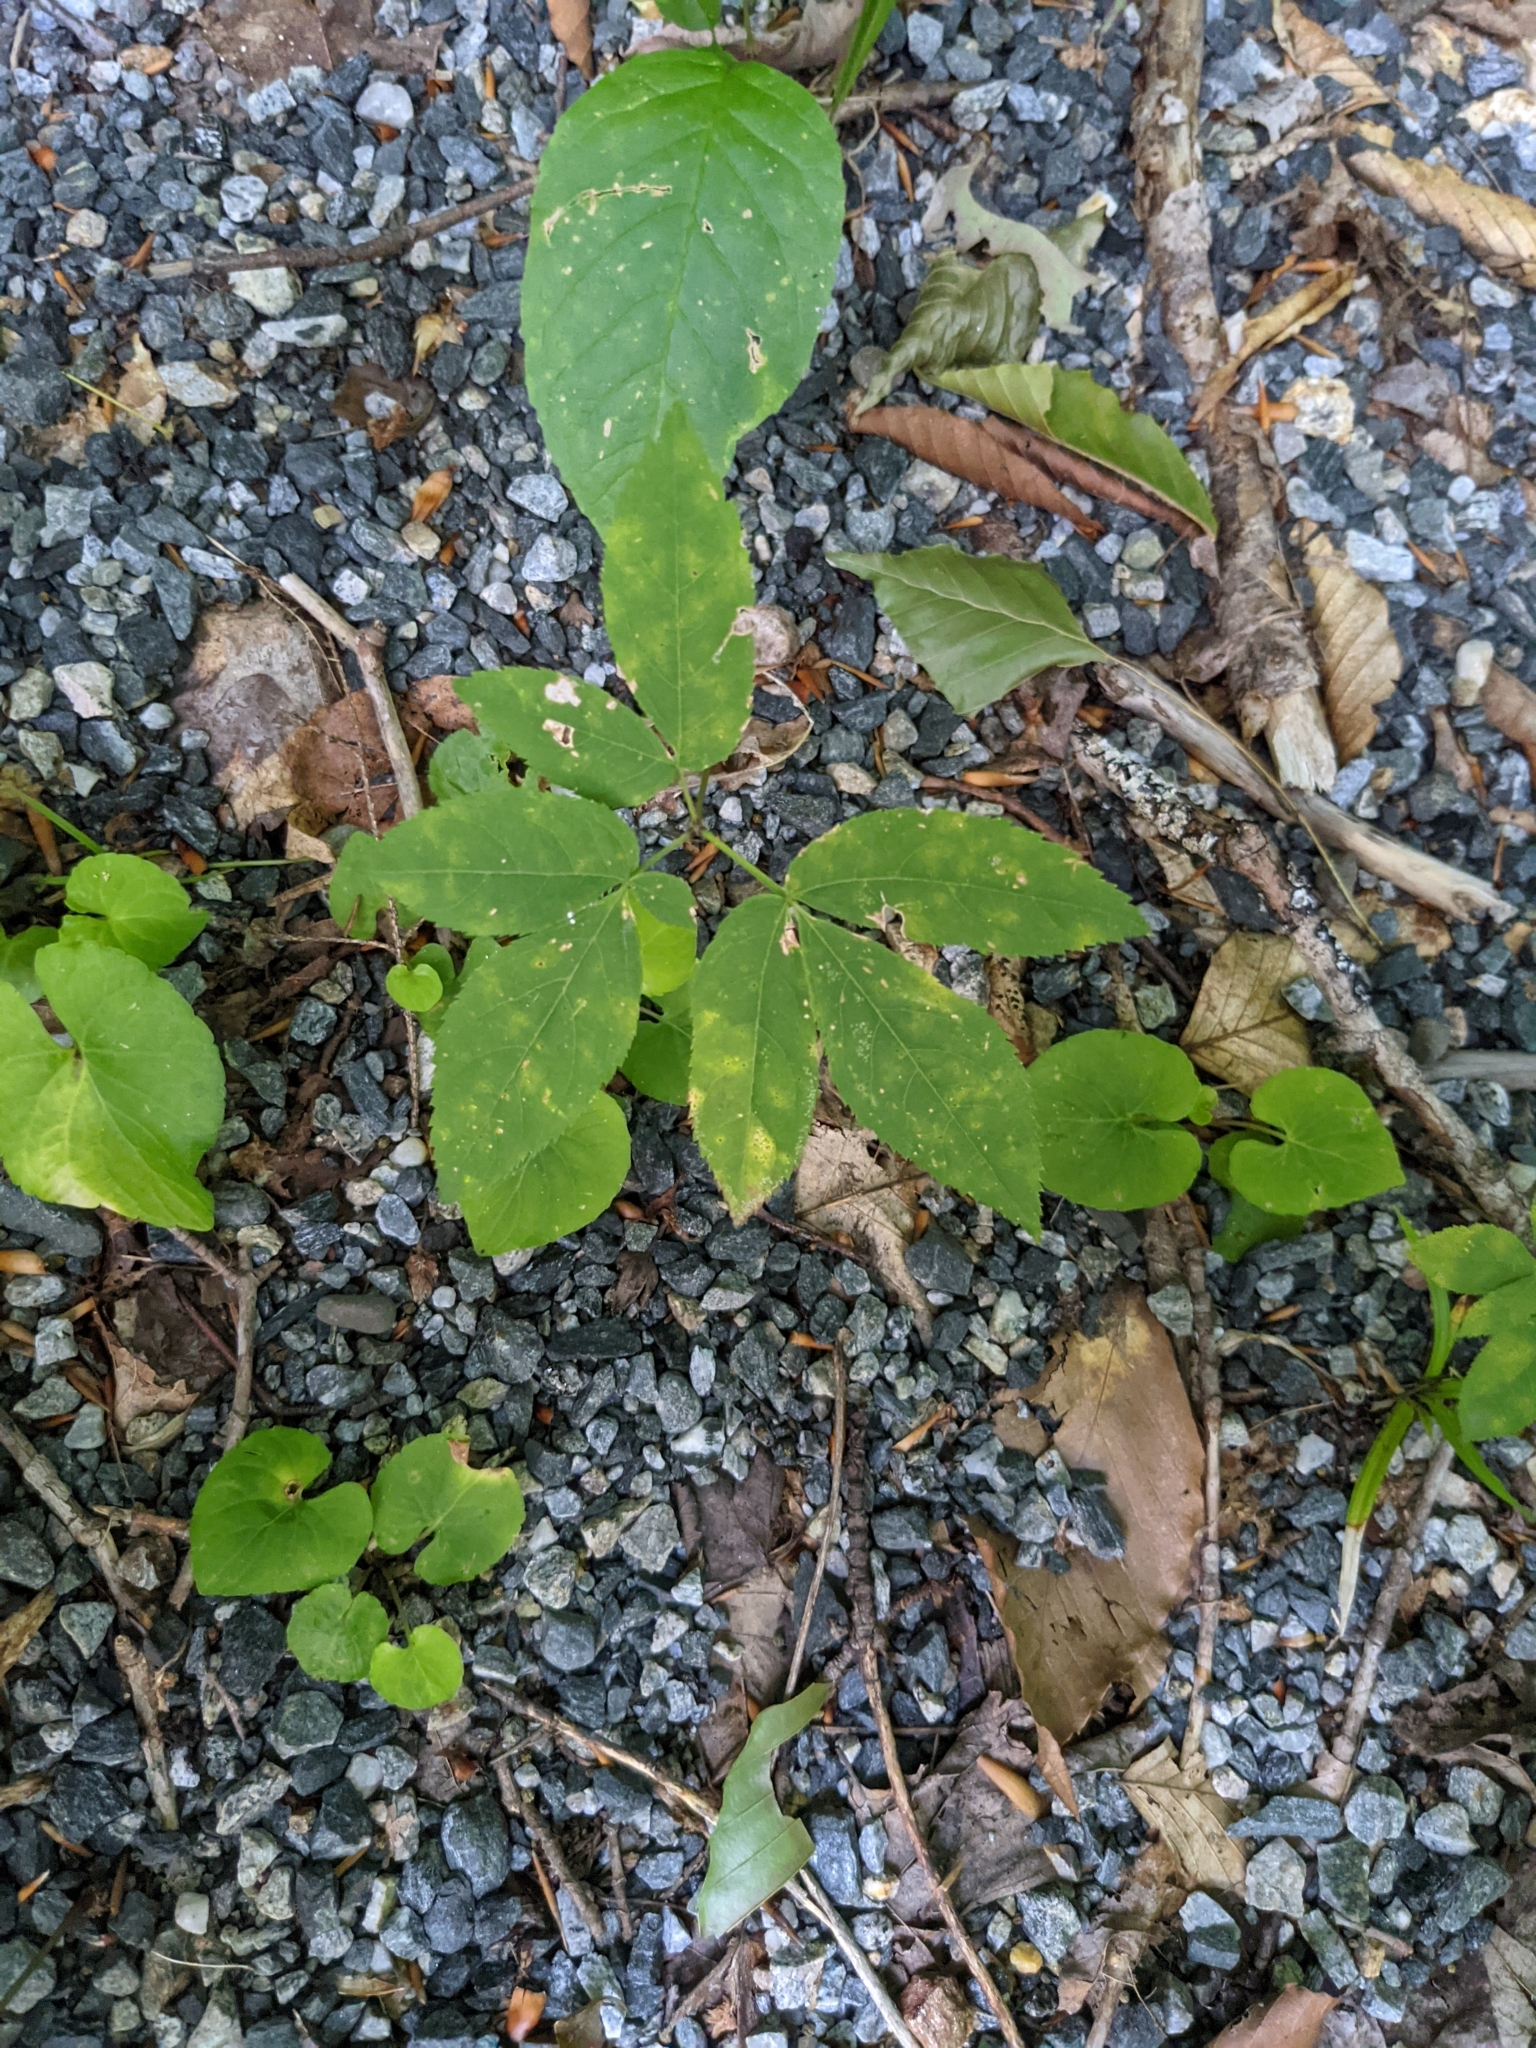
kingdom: Plantae
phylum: Tracheophyta
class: Magnoliopsida
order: Apiales
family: Araliaceae
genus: Aralia
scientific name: Aralia nudicaulis
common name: Wild sarsaparilla
